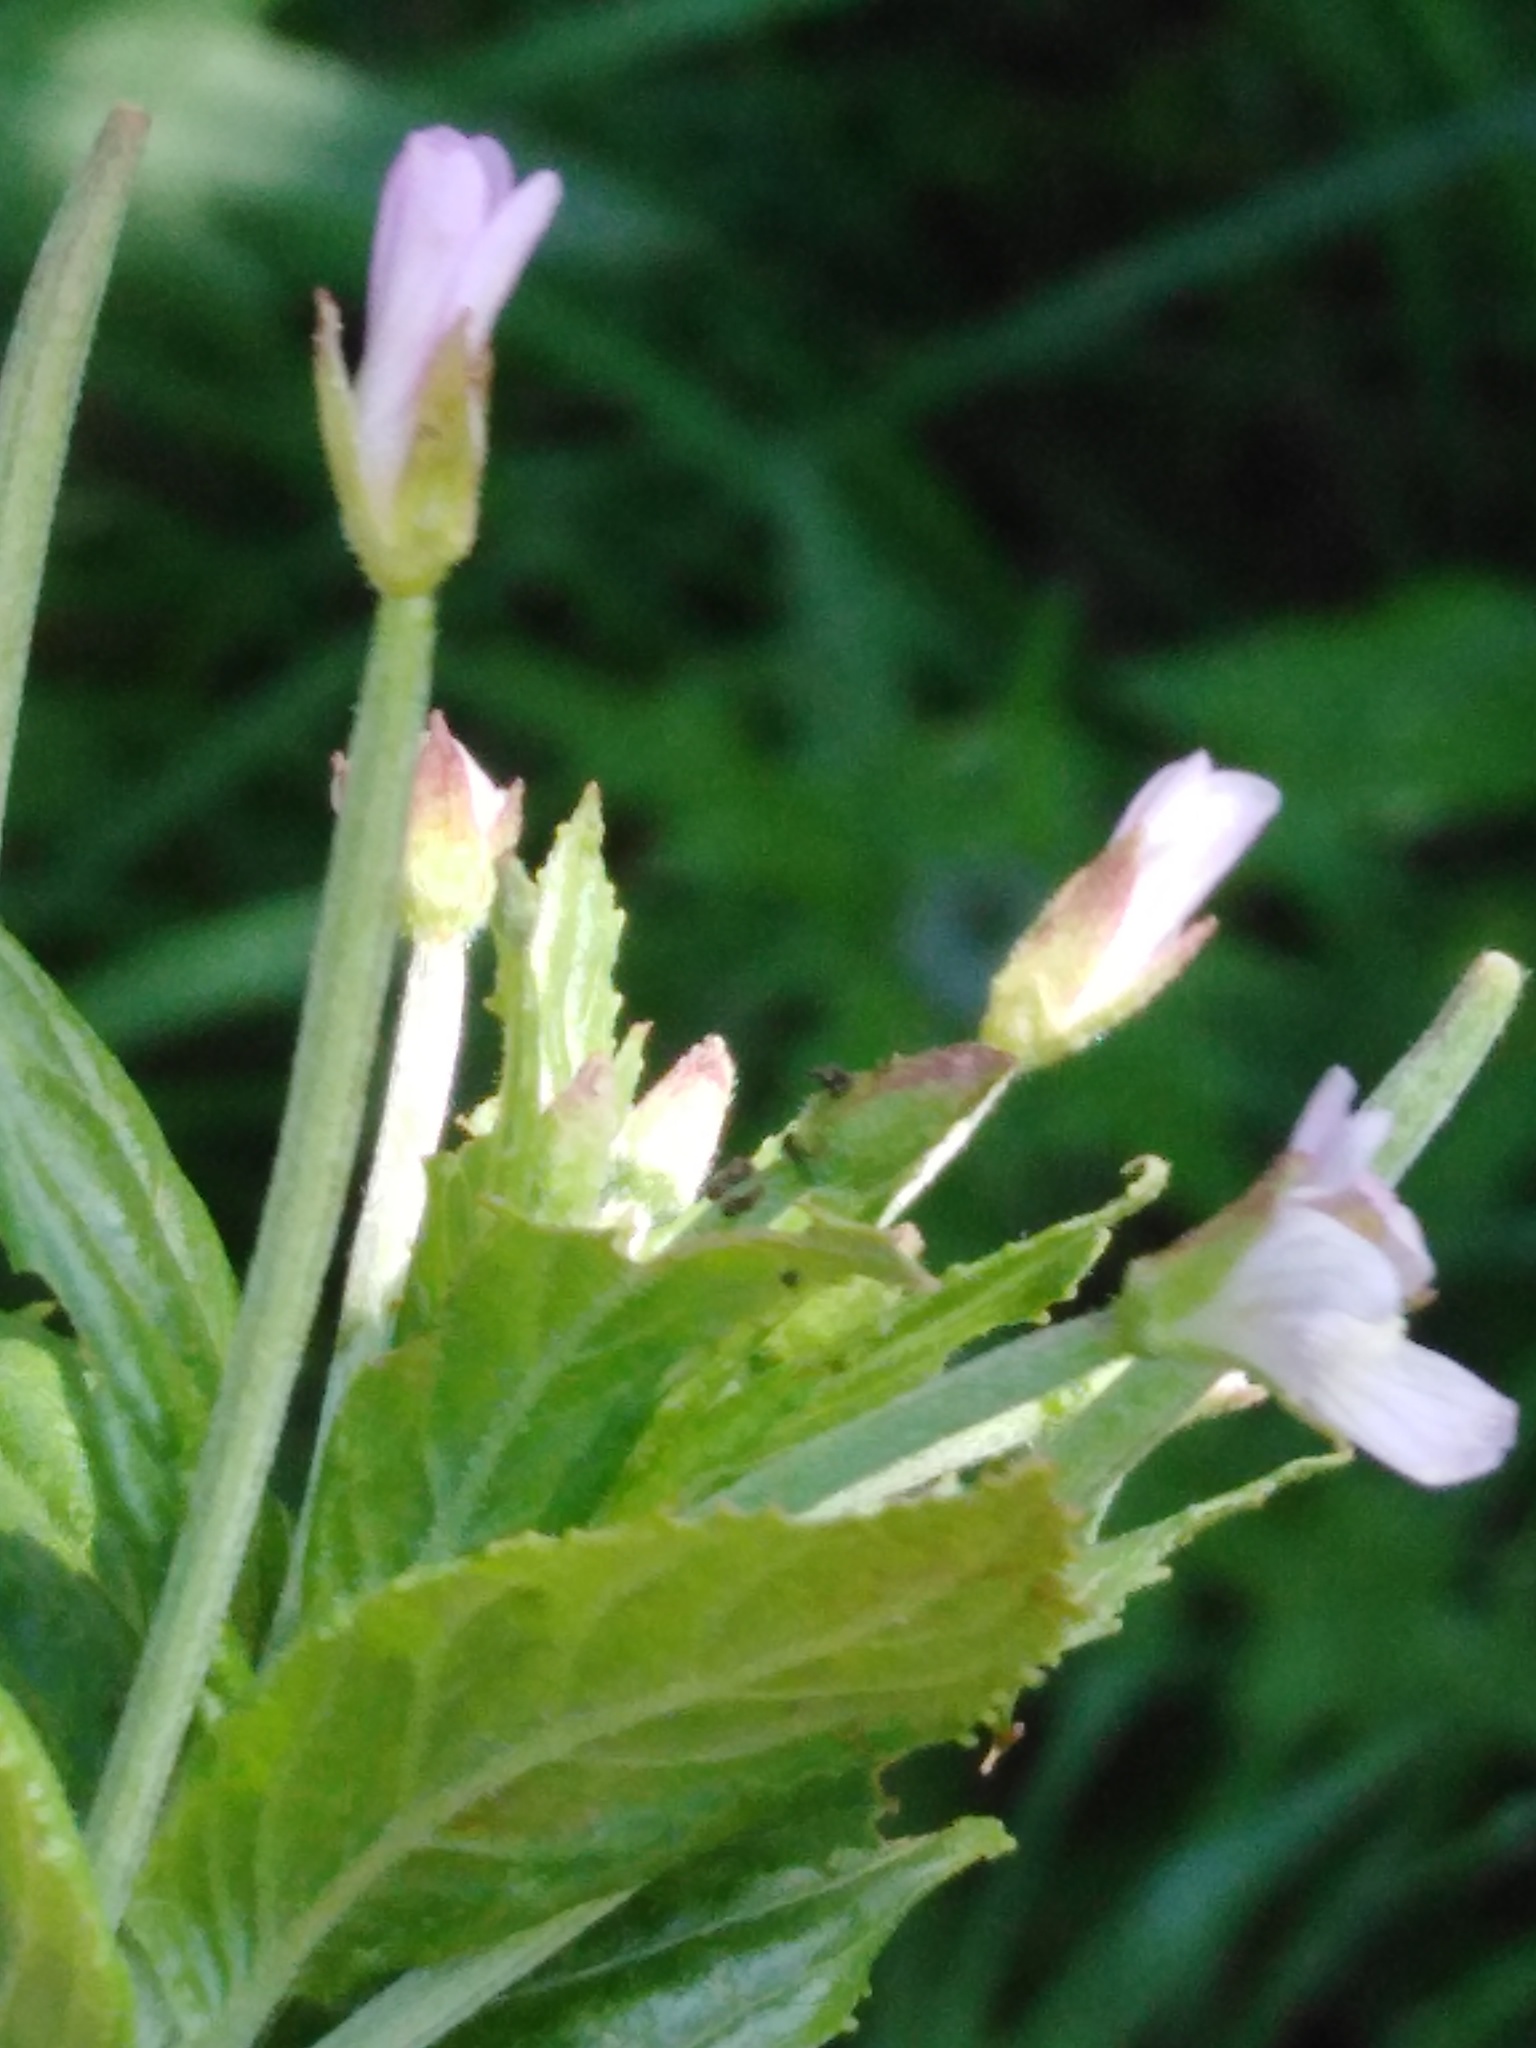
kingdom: Plantae
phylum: Tracheophyta
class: Magnoliopsida
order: Myrtales
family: Onagraceae
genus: Epilobium
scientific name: Epilobium roseum
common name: Pale willowherb
